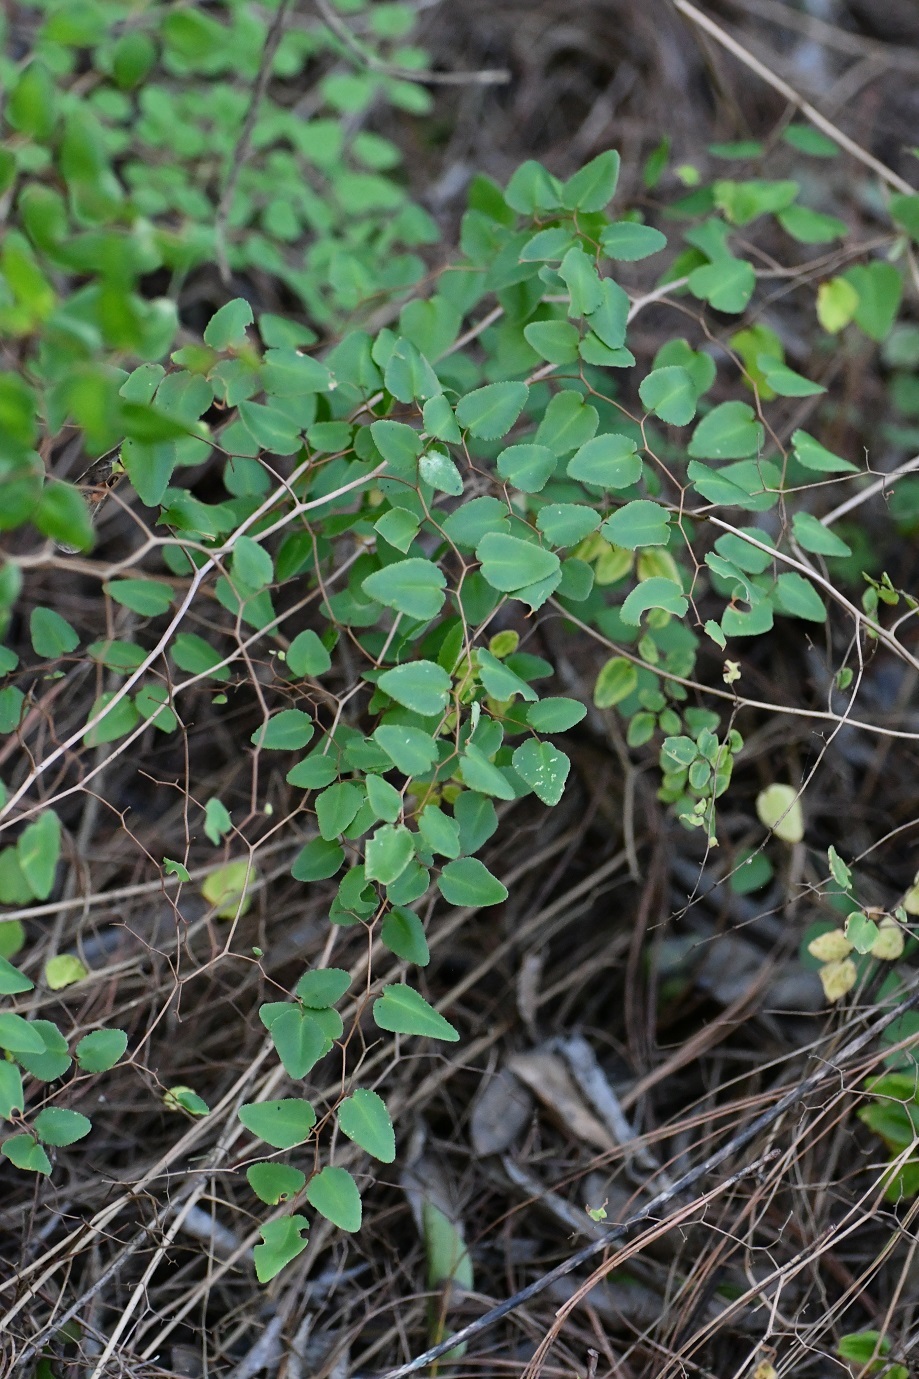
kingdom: Plantae
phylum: Tracheophyta
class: Polypodiopsida
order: Polypodiales
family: Pteridaceae
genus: Pellaea
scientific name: Pellaea ovata
